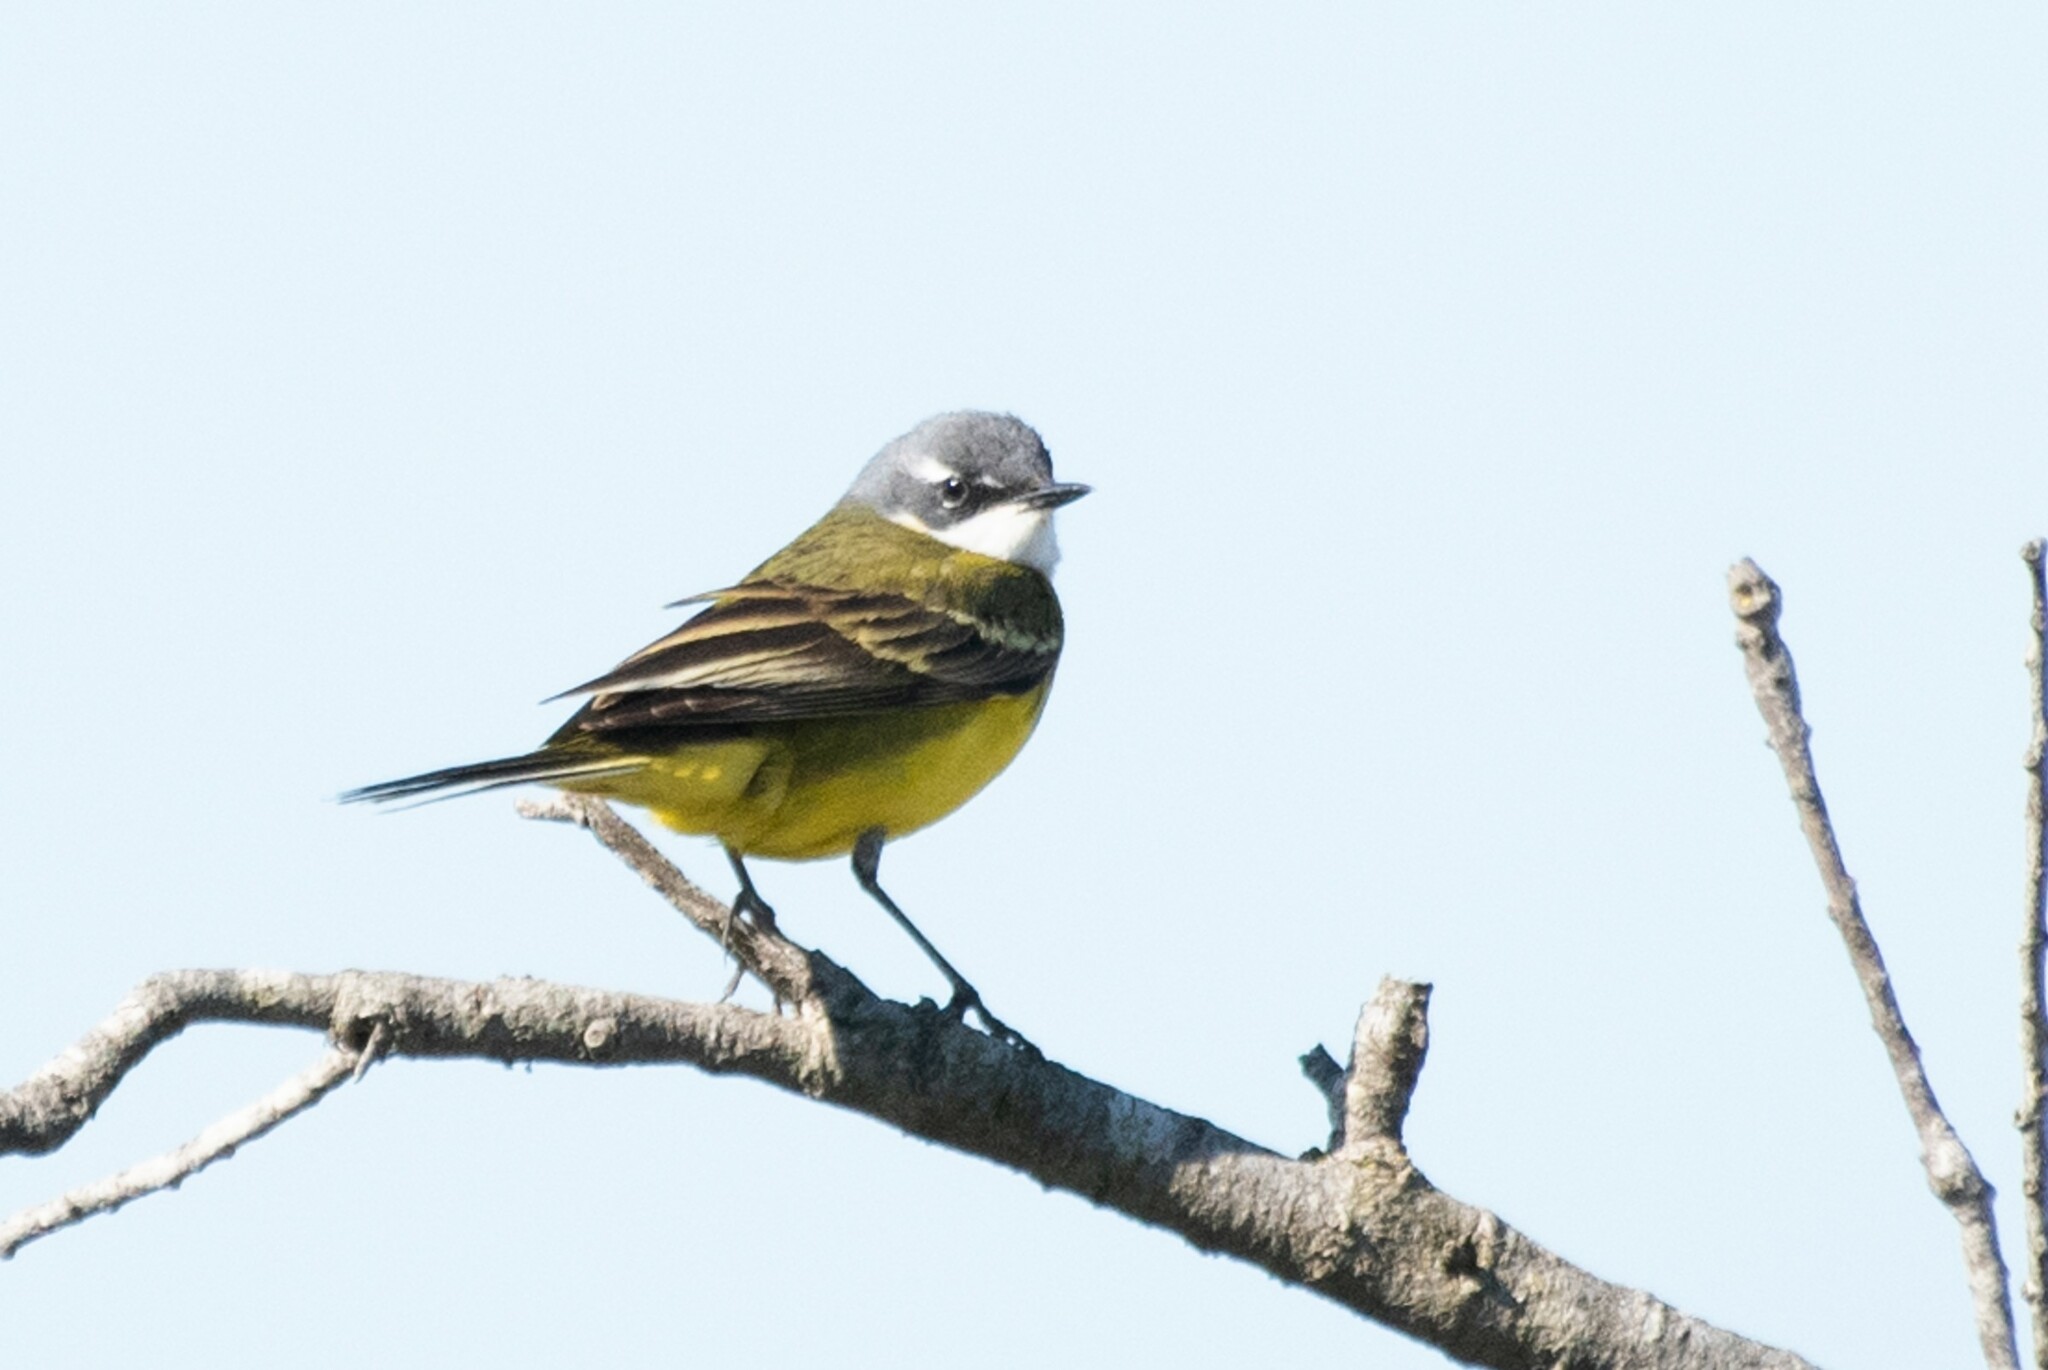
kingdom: Animalia
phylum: Chordata
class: Aves
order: Passeriformes
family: Motacillidae
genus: Motacilla
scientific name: Motacilla flava
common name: Western yellow wagtail
